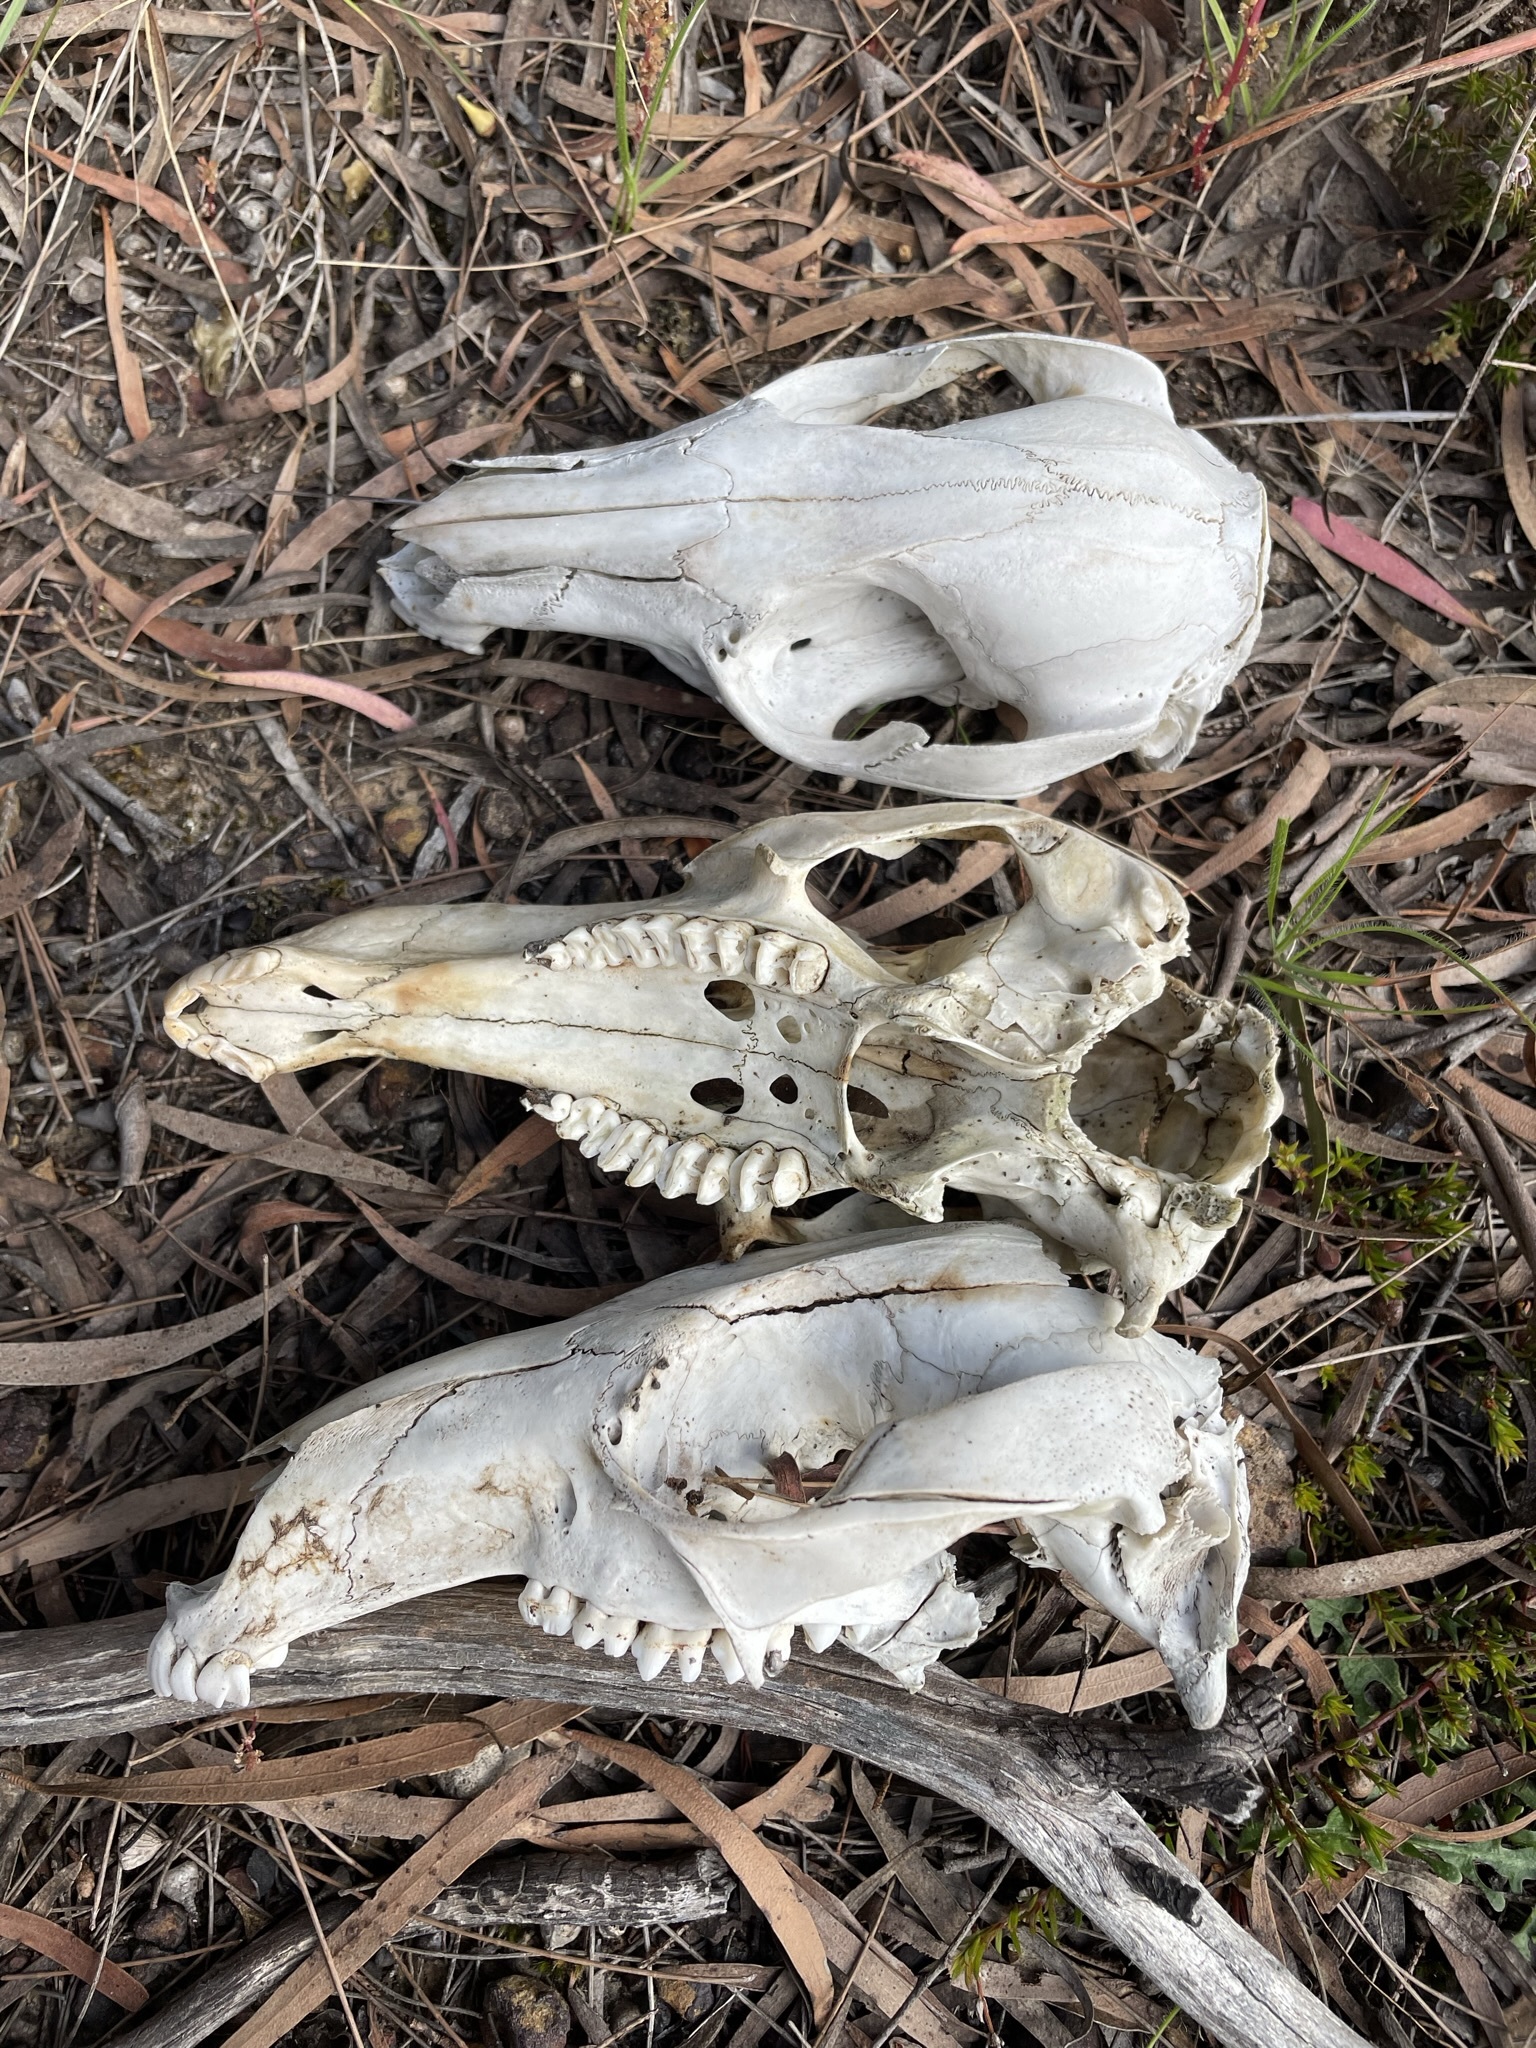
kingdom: Animalia
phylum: Chordata
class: Mammalia
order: Diprotodontia
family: Macropodidae
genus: Notamacropus
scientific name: Notamacropus rufogriseus
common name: Red-necked wallaby
